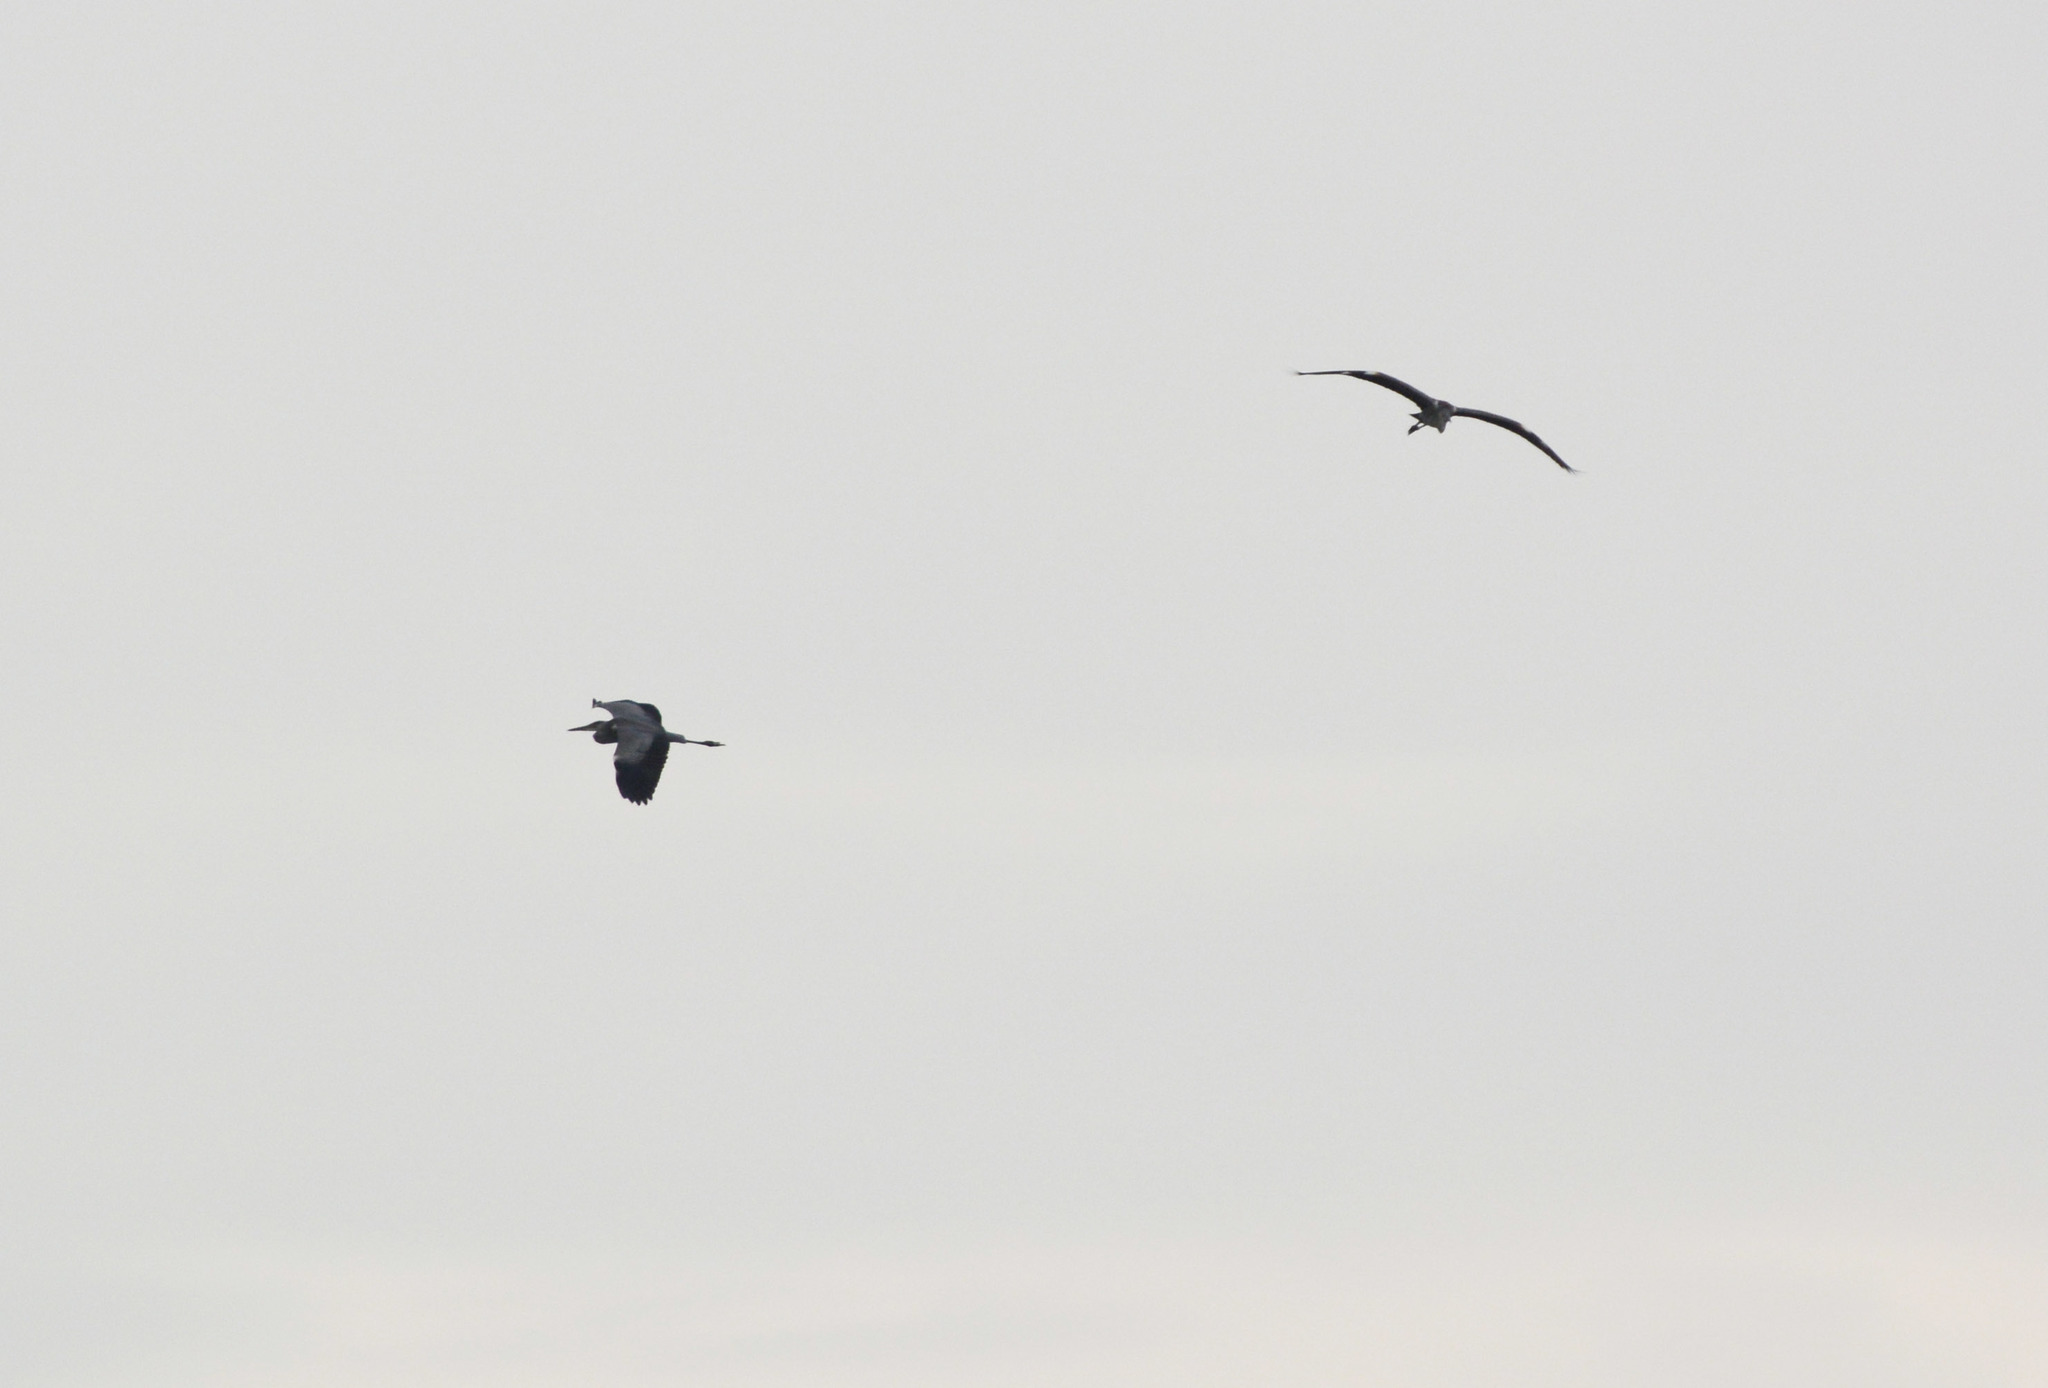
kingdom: Animalia
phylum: Chordata
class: Aves
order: Pelecaniformes
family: Ardeidae
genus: Ardea
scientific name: Ardea cinerea
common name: Grey heron
